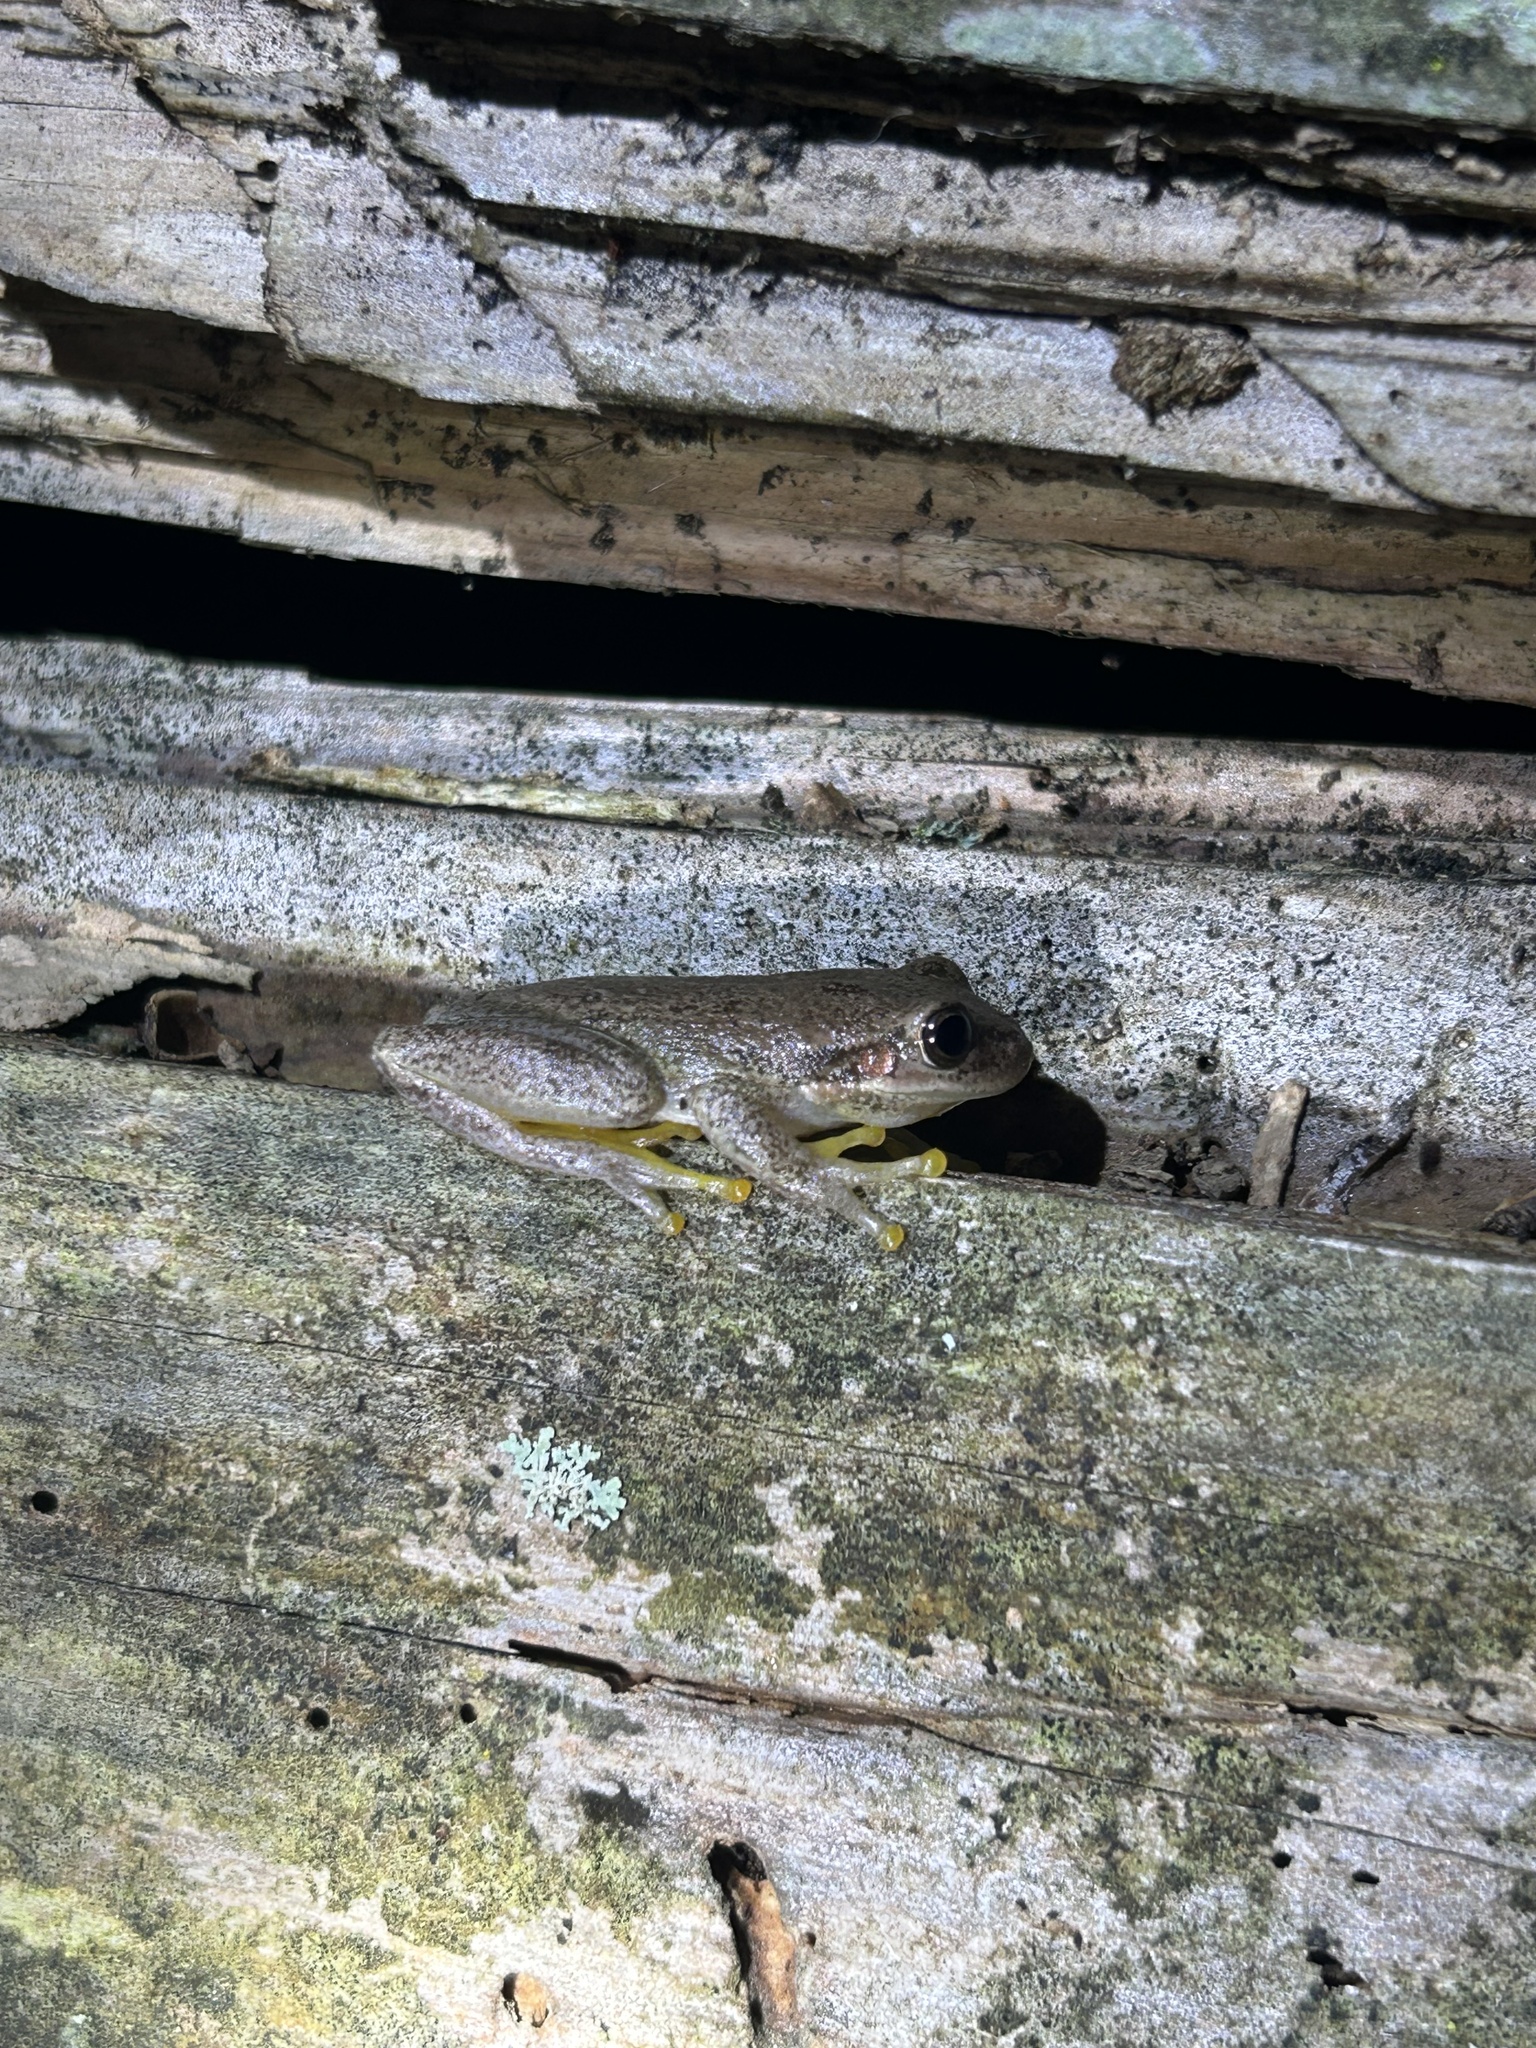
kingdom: Animalia
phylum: Chordata
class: Amphibia
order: Anura
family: Hylidae
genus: Dryophytes
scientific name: Dryophytes squirellus
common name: Squirrel treefrog
